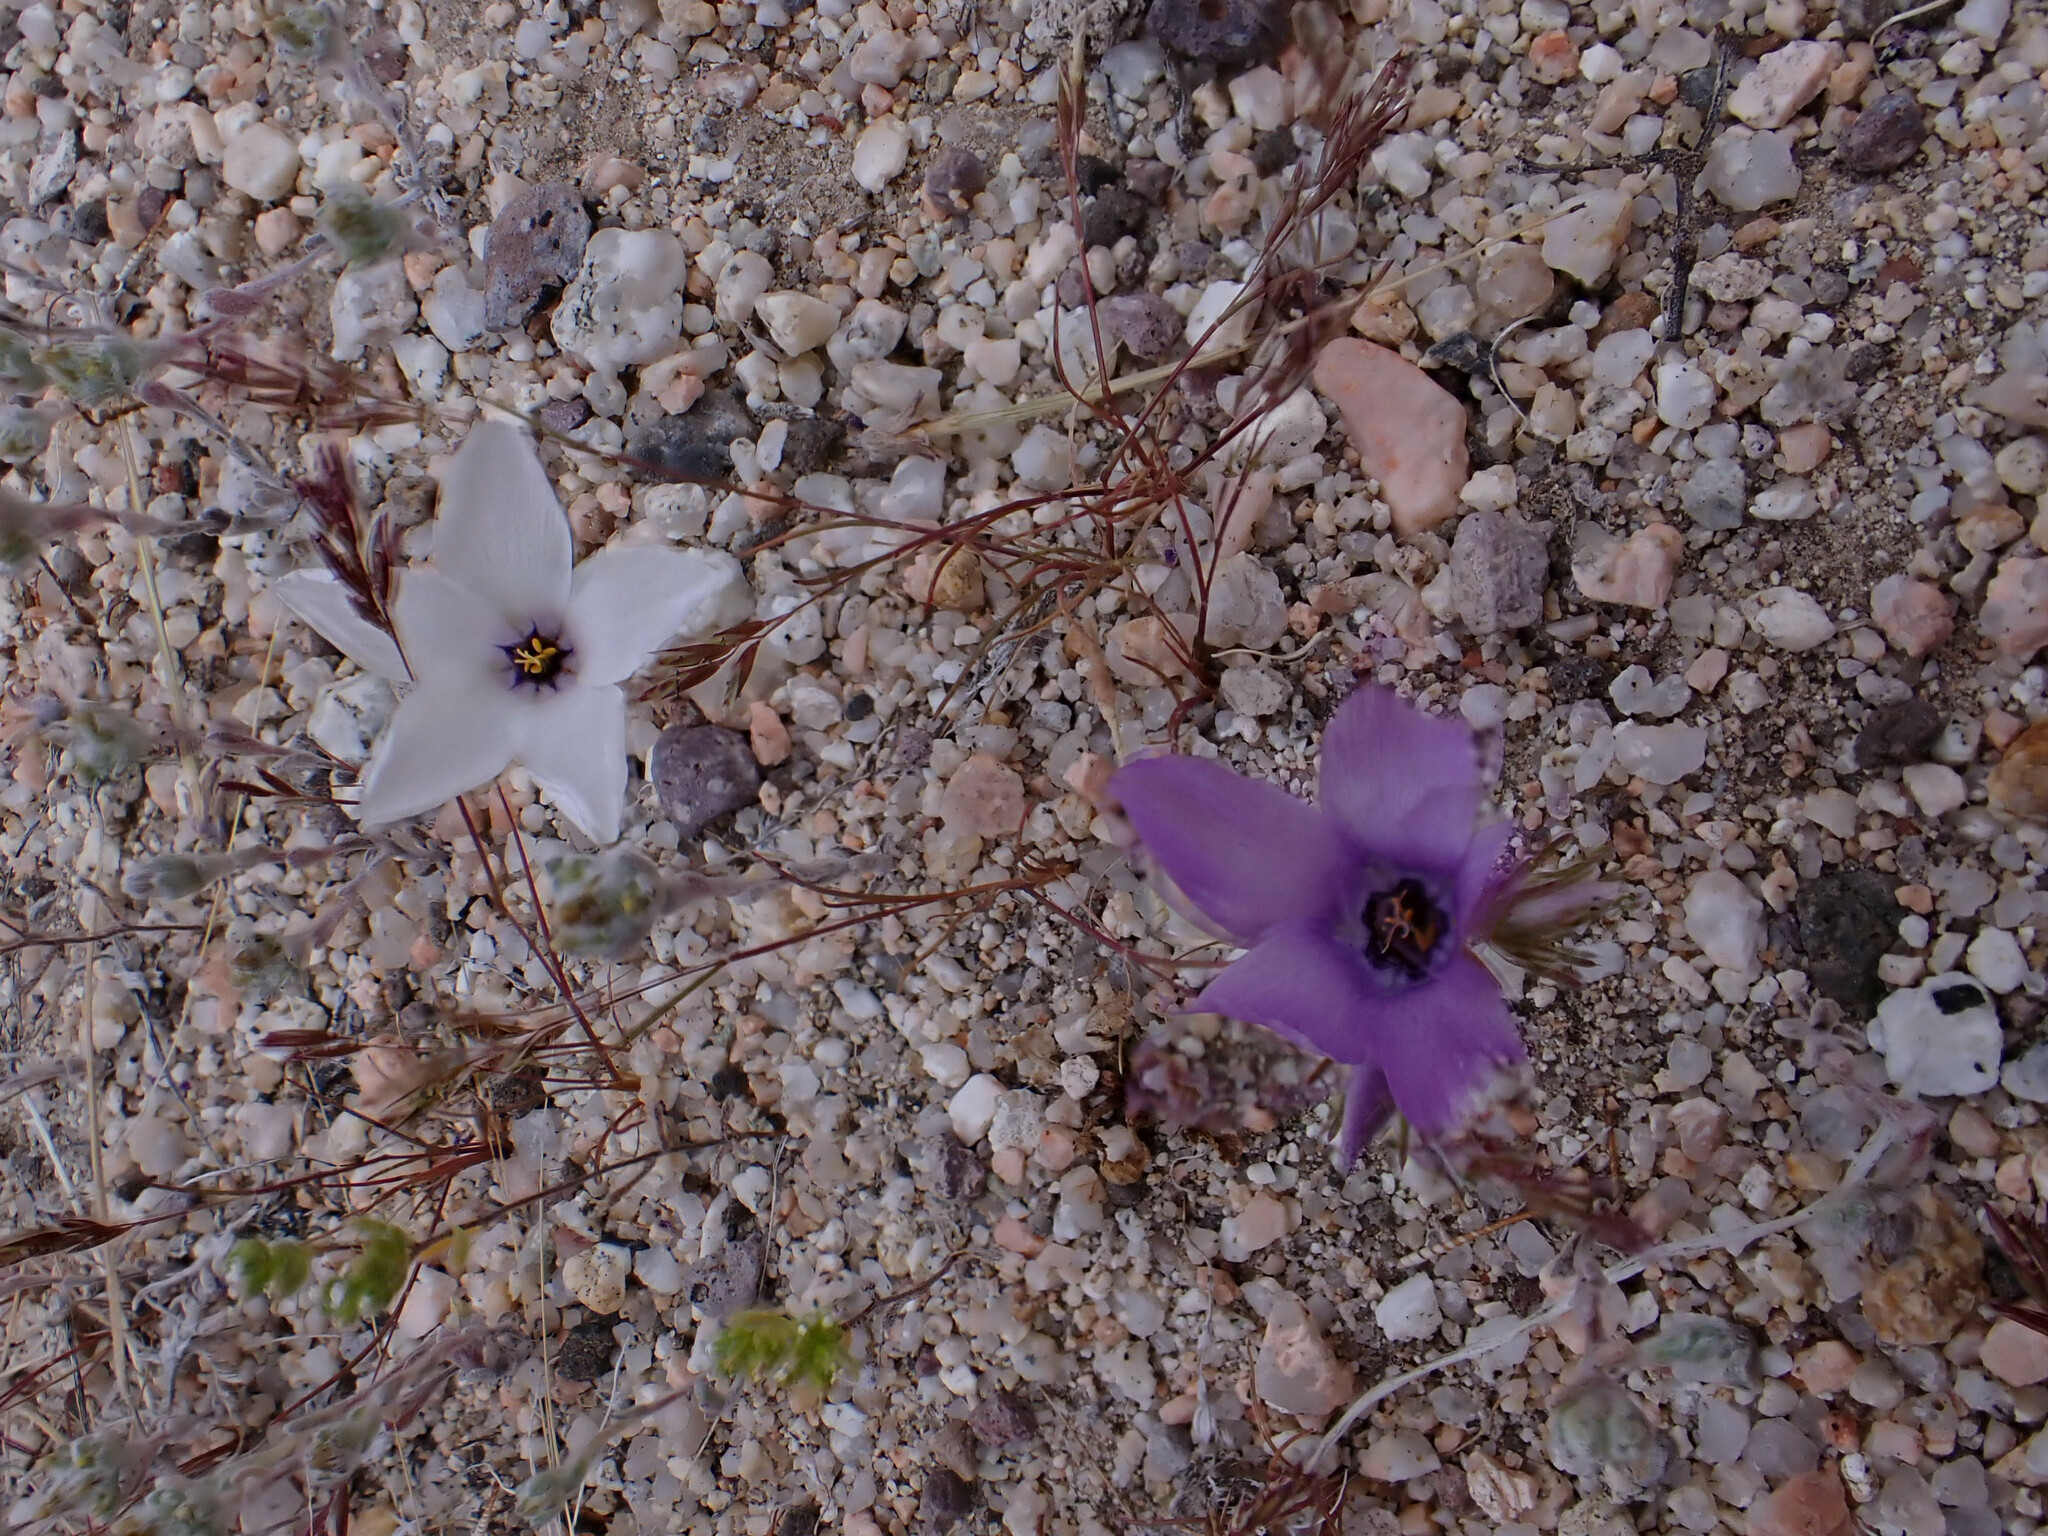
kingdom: Plantae
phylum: Tracheophyta
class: Magnoliopsida
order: Ericales
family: Polemoniaceae
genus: Linanthus
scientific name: Linanthus parryae
